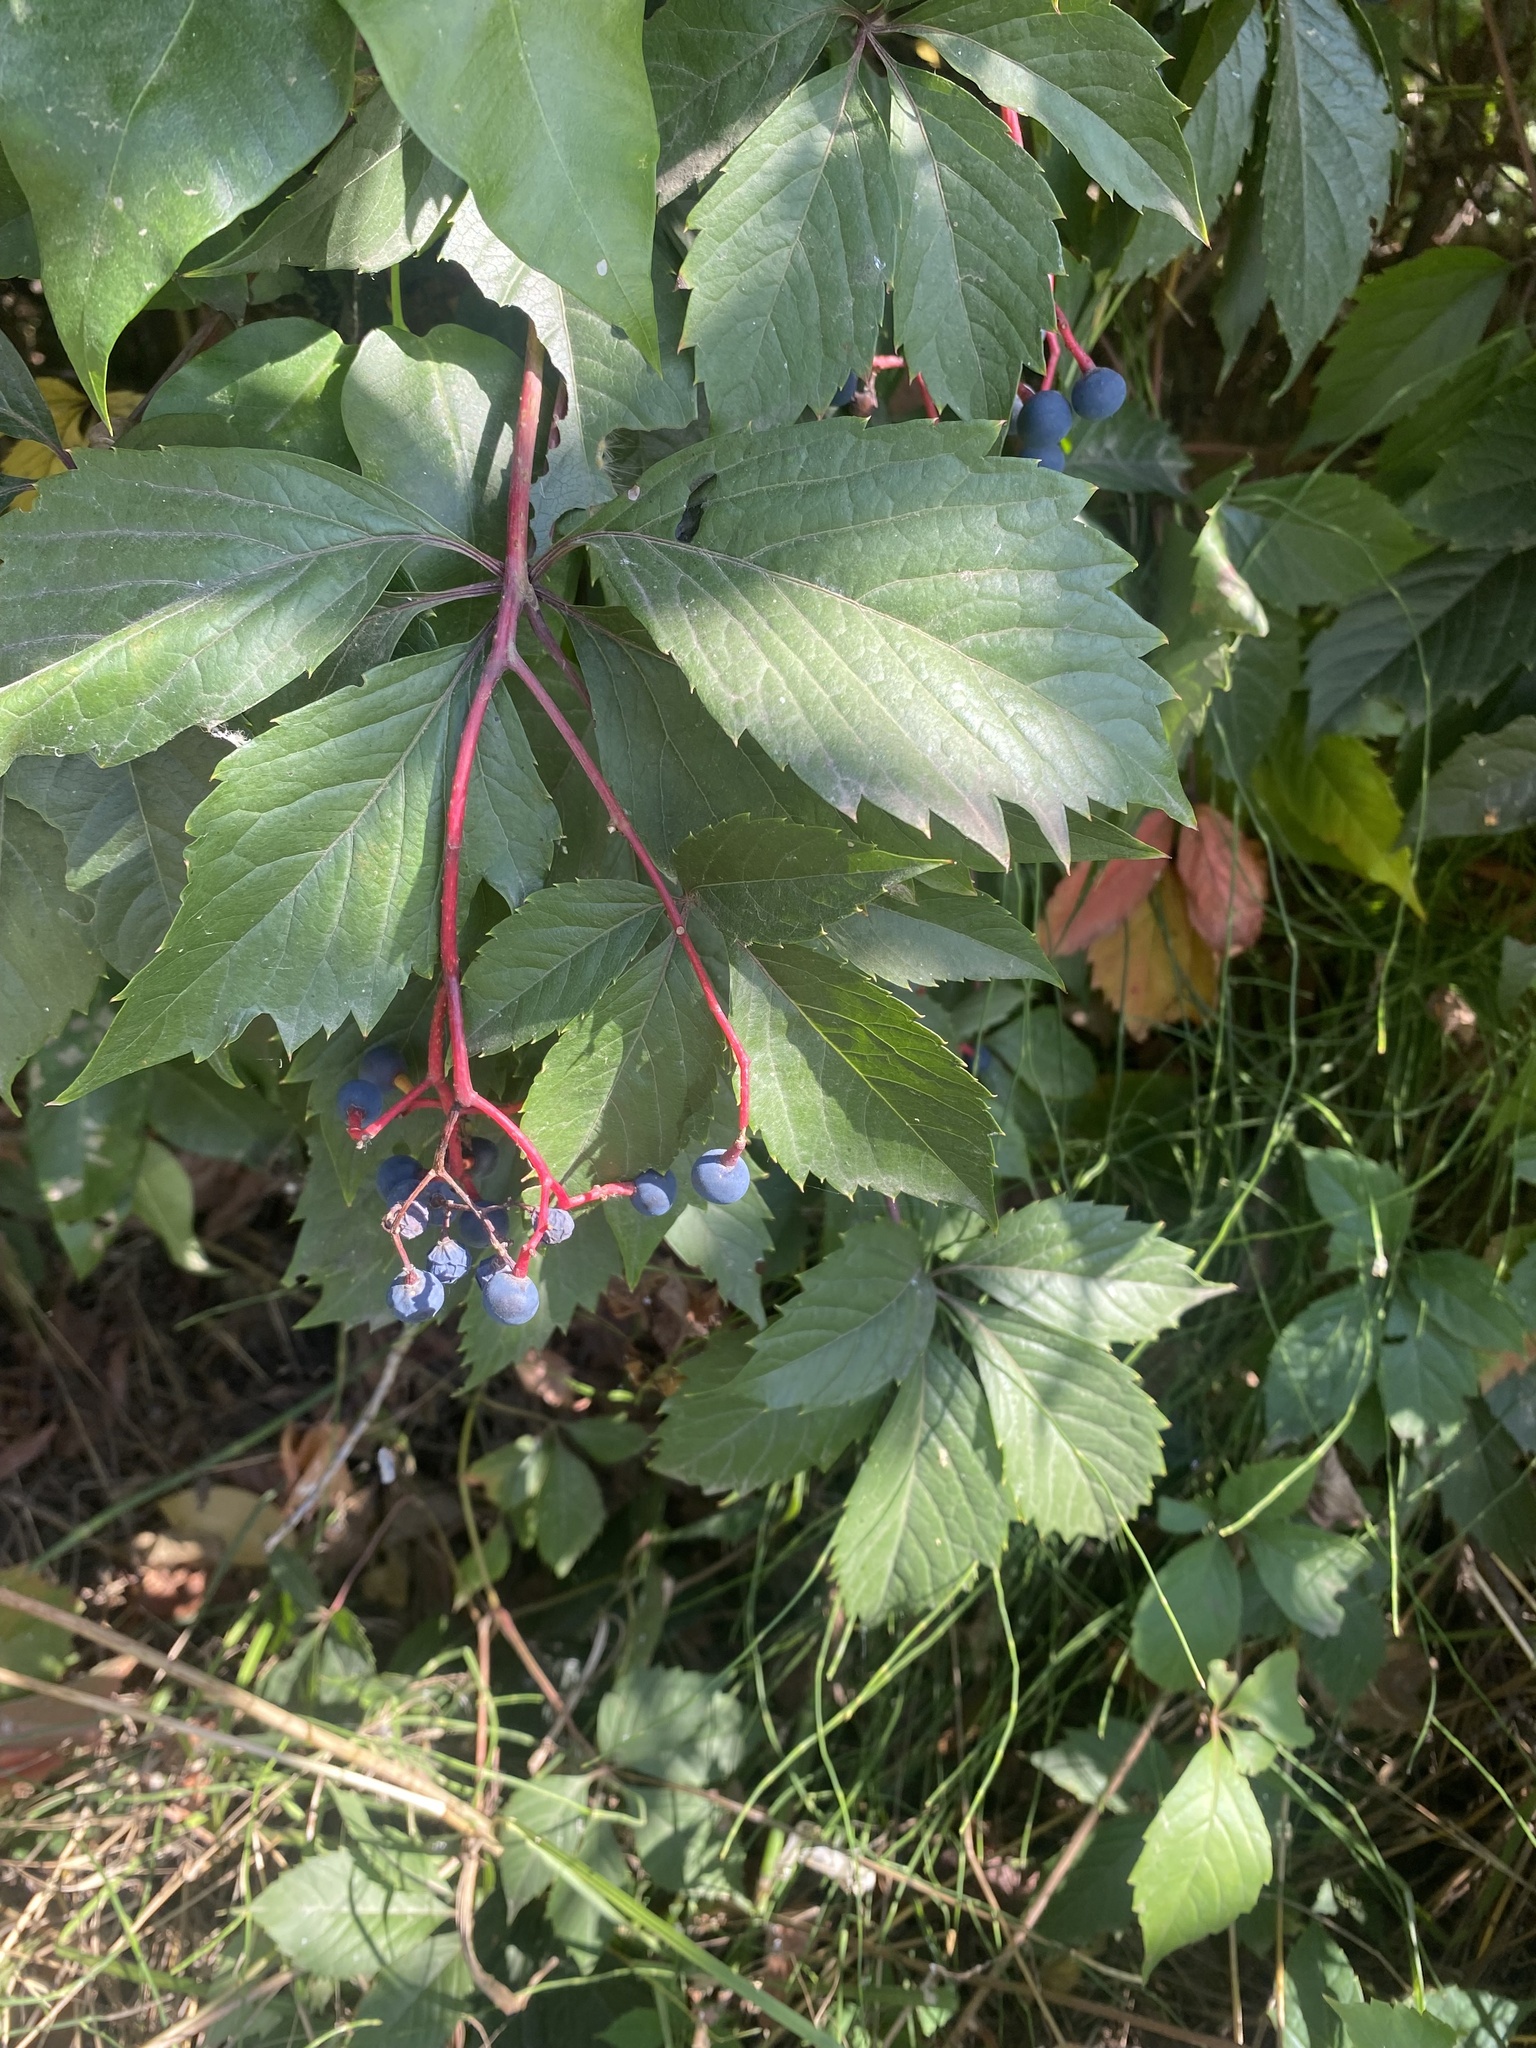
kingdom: Plantae
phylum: Tracheophyta
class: Magnoliopsida
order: Vitales
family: Vitaceae
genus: Parthenocissus
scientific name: Parthenocissus inserta
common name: False virginia-creeper
